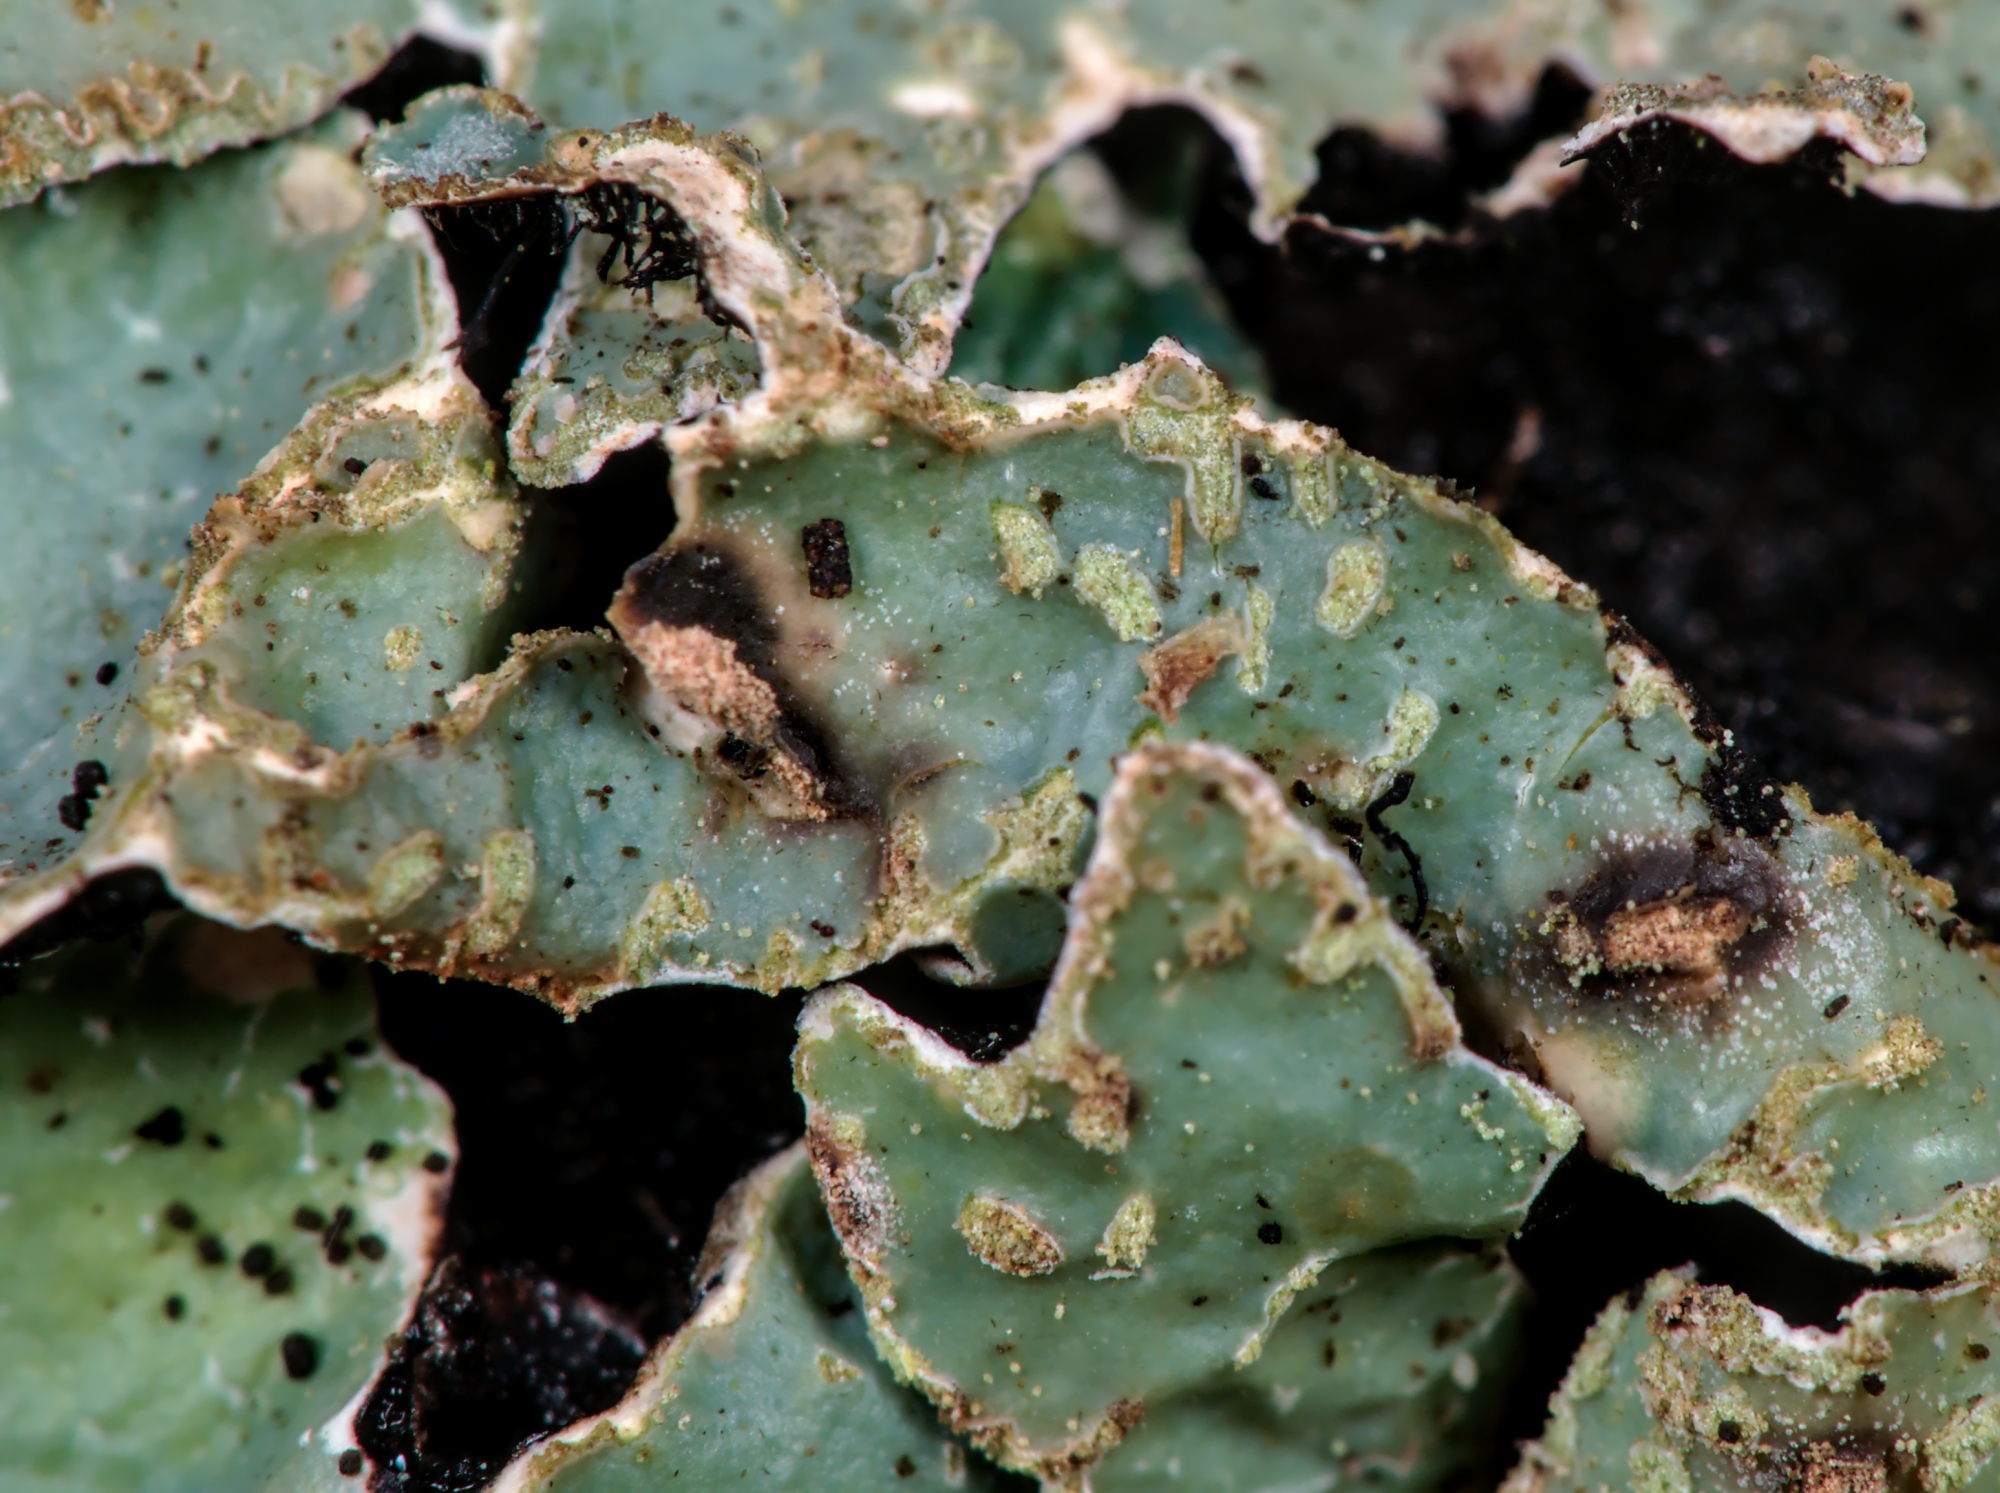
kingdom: Fungi
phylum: Ascomycota
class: Lecanoromycetes
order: Lecanorales
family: Parmeliaceae
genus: Parmelia
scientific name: Parmelia sulcata
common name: Netted shield lichen
